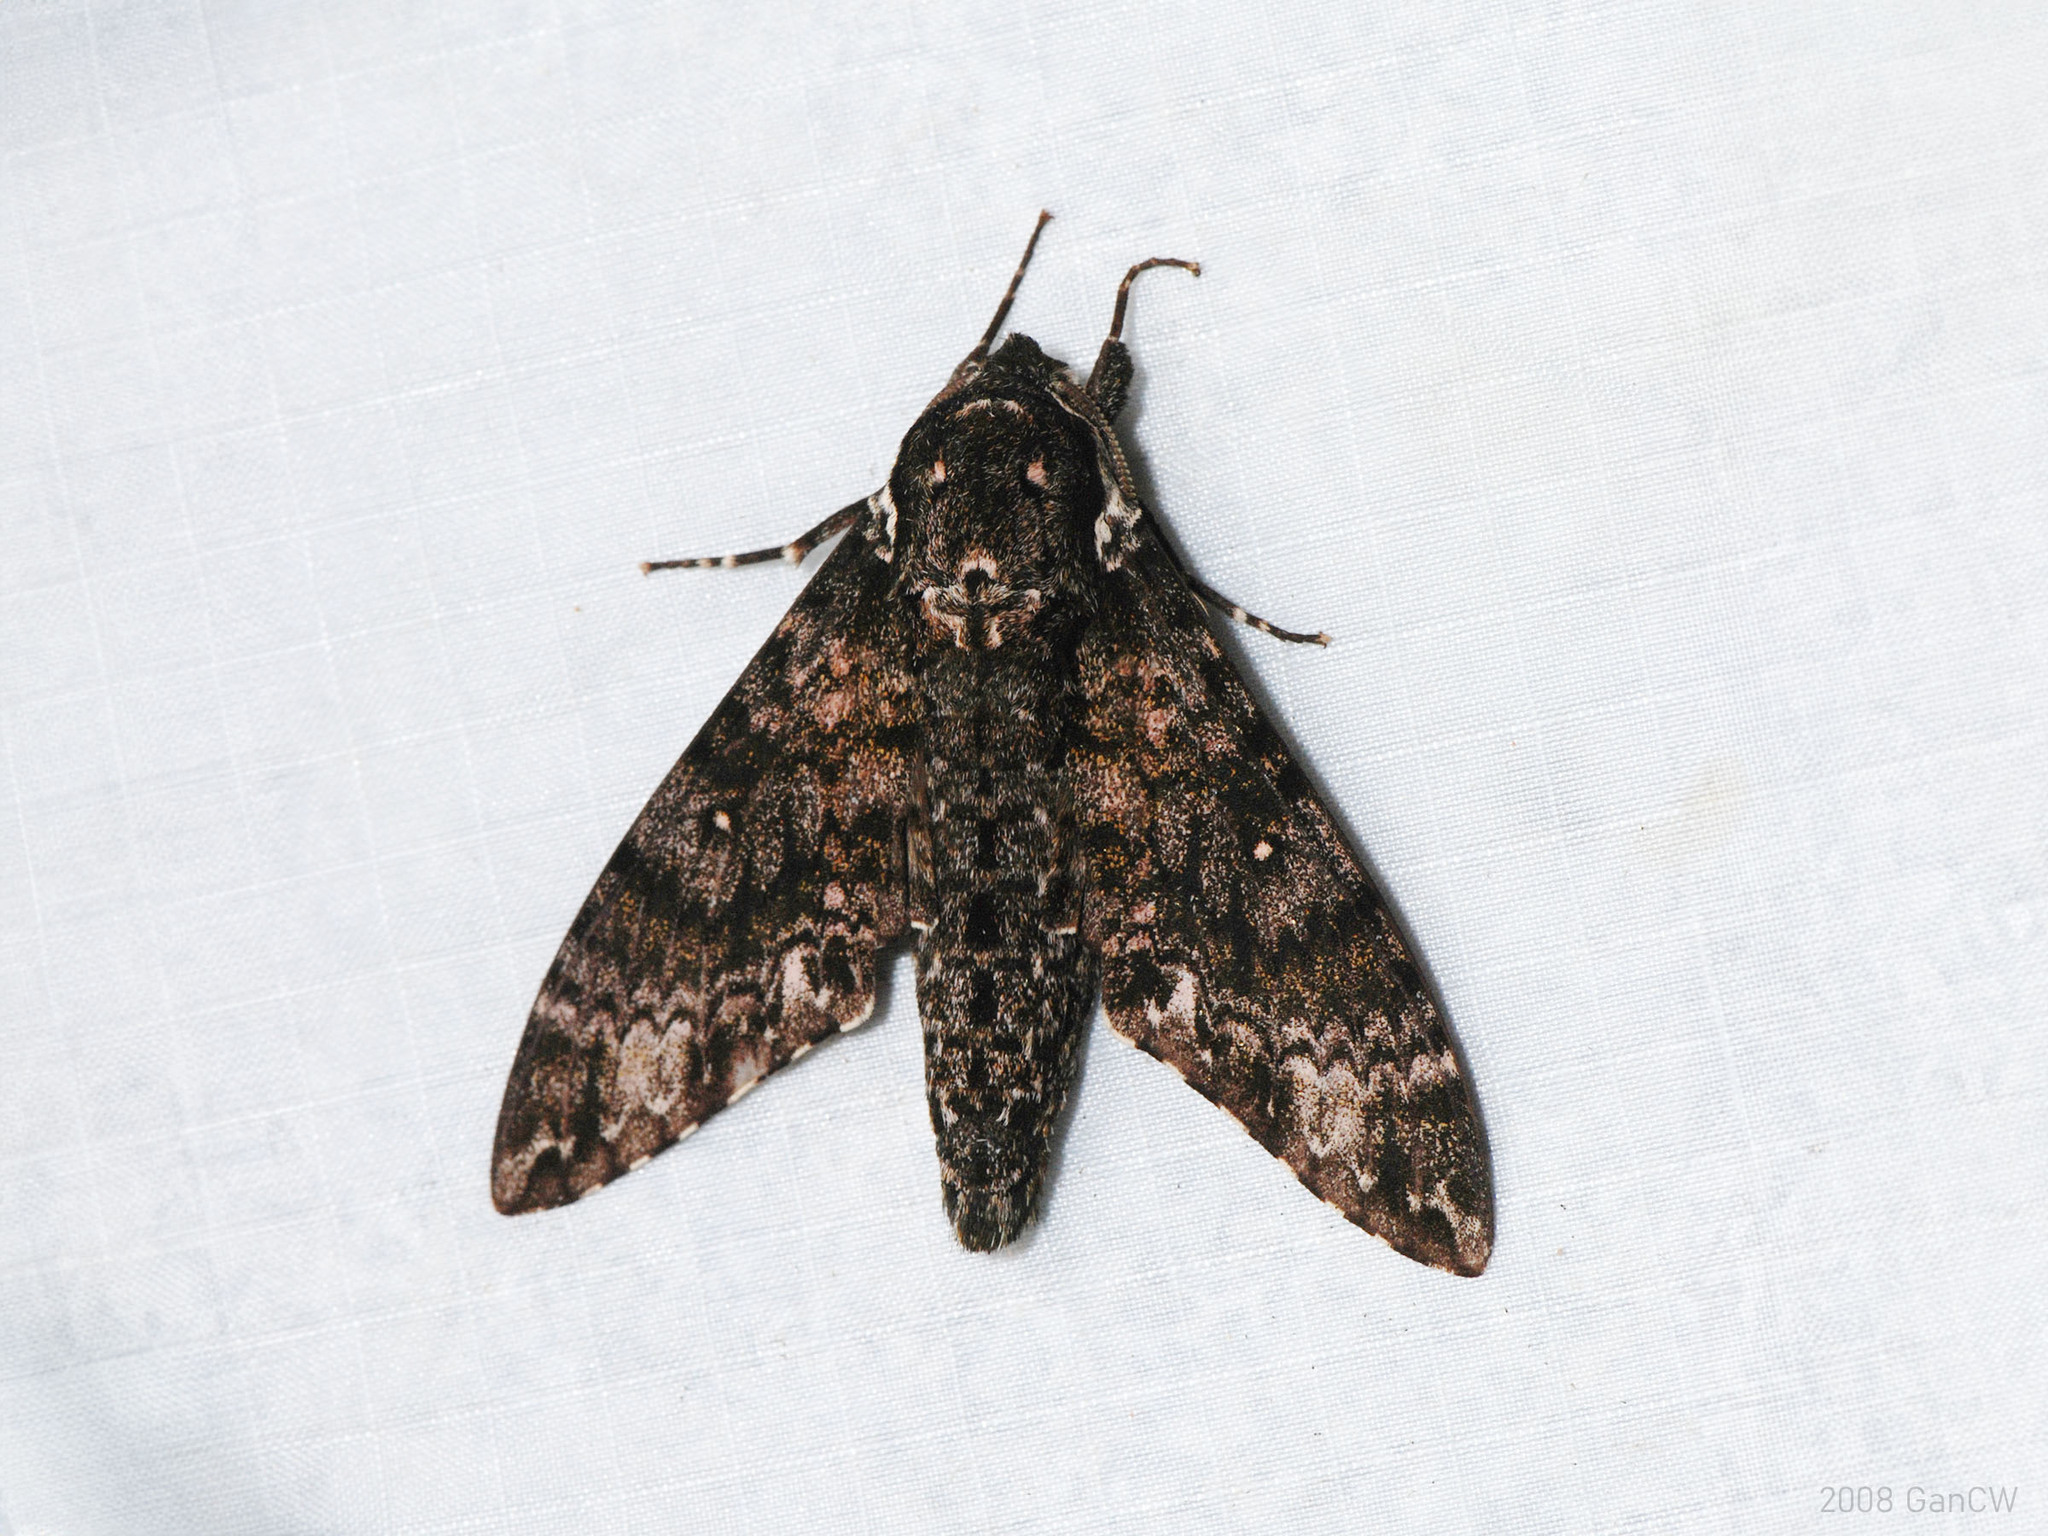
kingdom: Animalia
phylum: Arthropoda
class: Insecta
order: Lepidoptera
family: Sphingidae
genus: Dolbina
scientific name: Dolbina krikkeni
